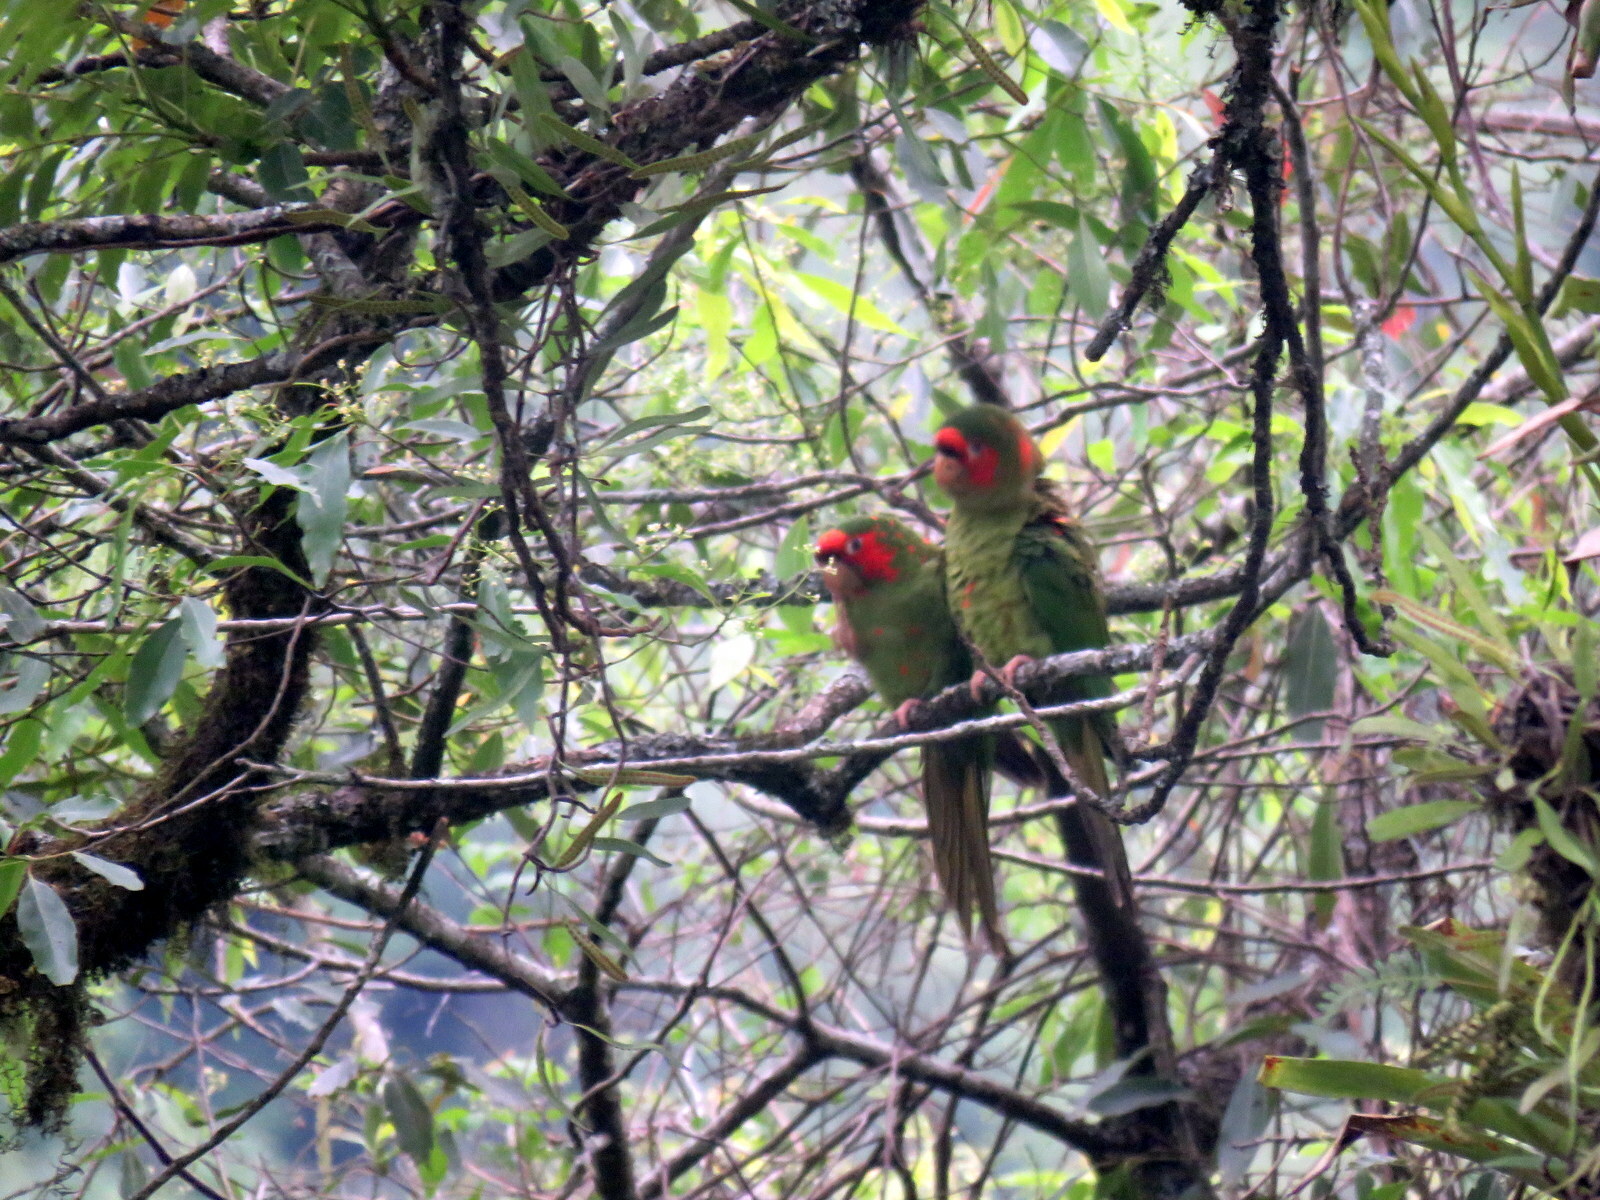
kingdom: Animalia
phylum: Chordata
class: Aves
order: Psittaciformes
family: Psittacidae
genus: Aratinga
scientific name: Aratinga mitrata
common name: Mitred parakeet
